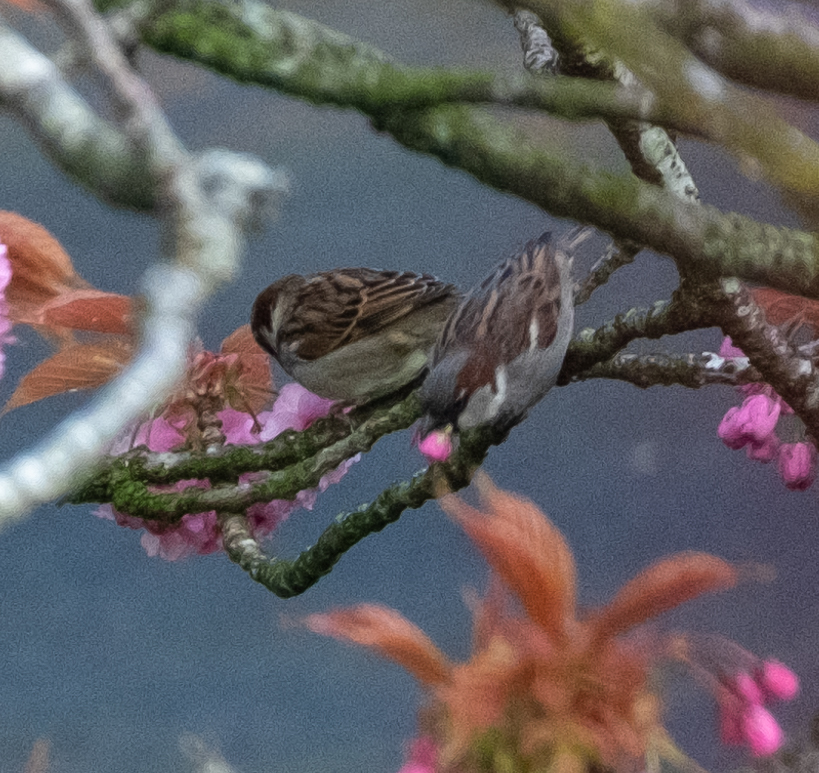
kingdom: Animalia
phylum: Chordata
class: Aves
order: Passeriformes
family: Passeridae
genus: Passer
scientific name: Passer domesticus
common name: House sparrow
